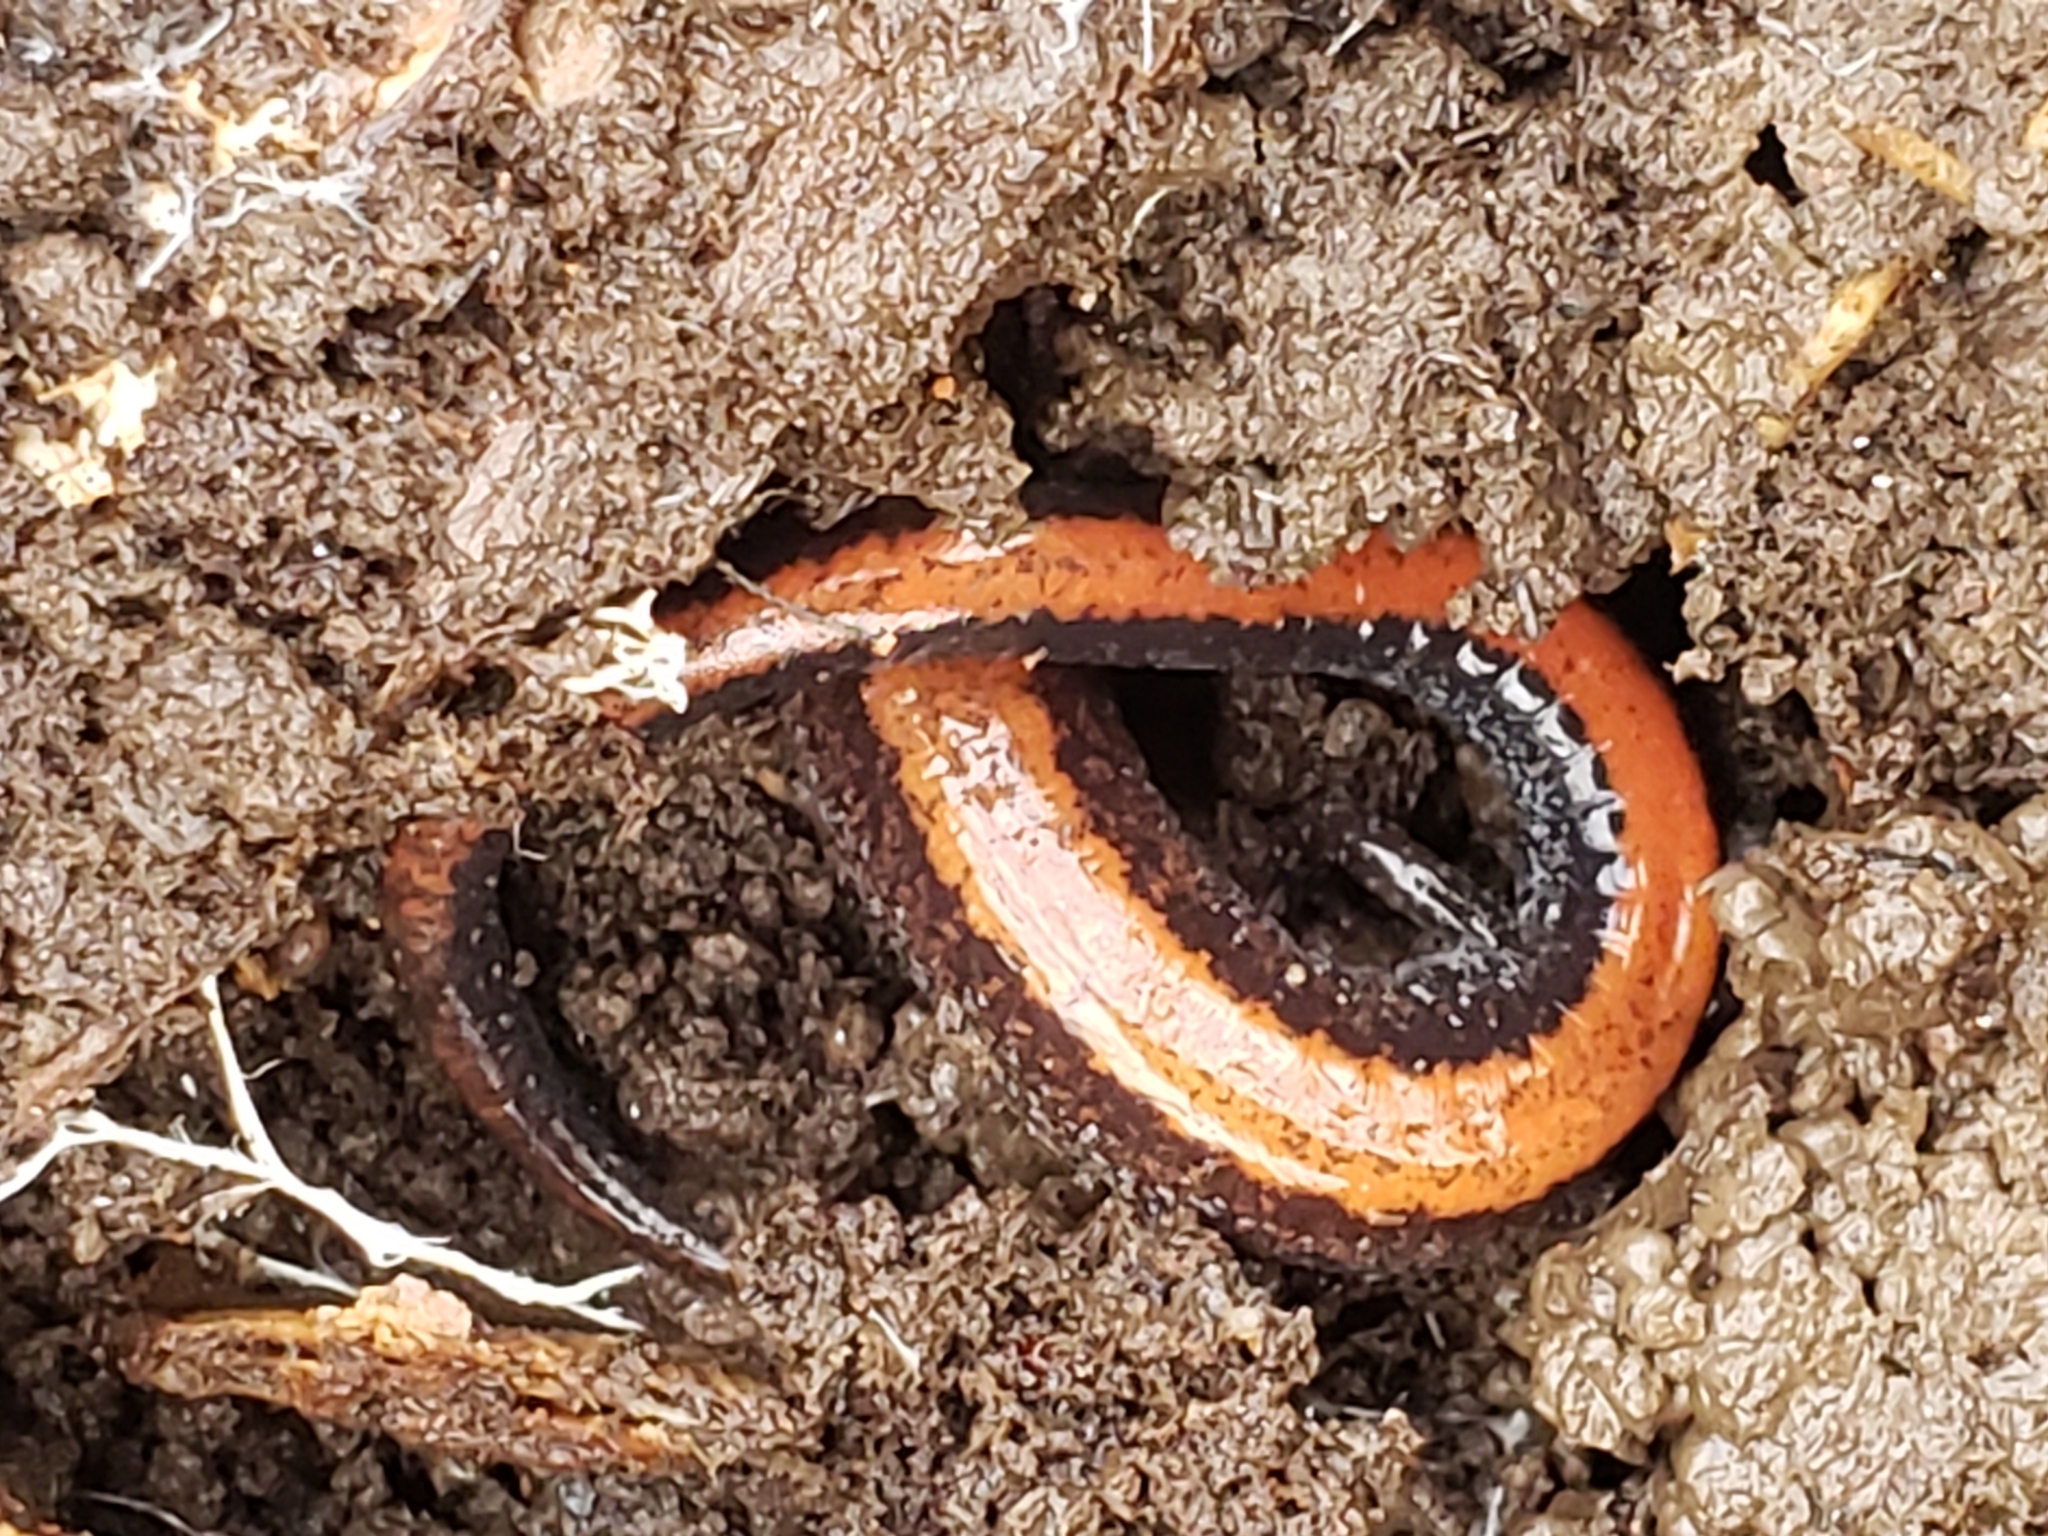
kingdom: Animalia
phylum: Chordata
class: Amphibia
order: Caudata
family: Plethodontidae
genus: Plethodon
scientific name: Plethodon cinereus
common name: Redback salamander
